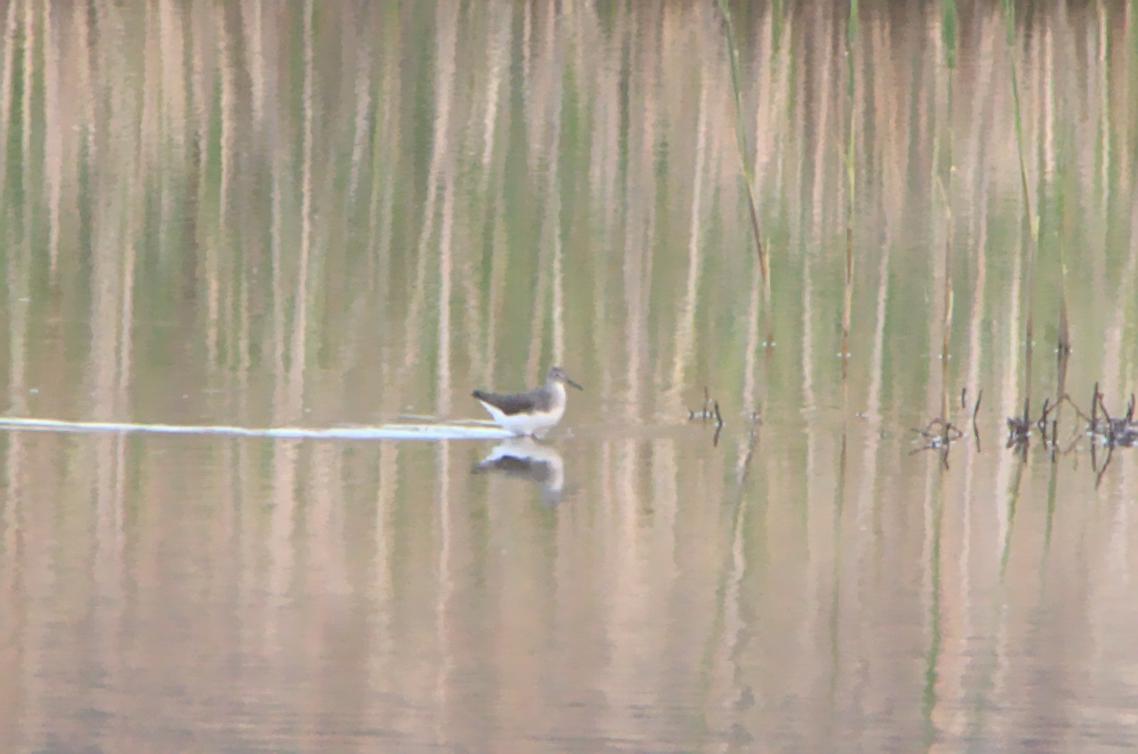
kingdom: Animalia
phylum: Chordata
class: Aves
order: Charadriiformes
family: Scolopacidae
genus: Tringa
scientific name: Tringa ochropus
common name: Green sandpiper
